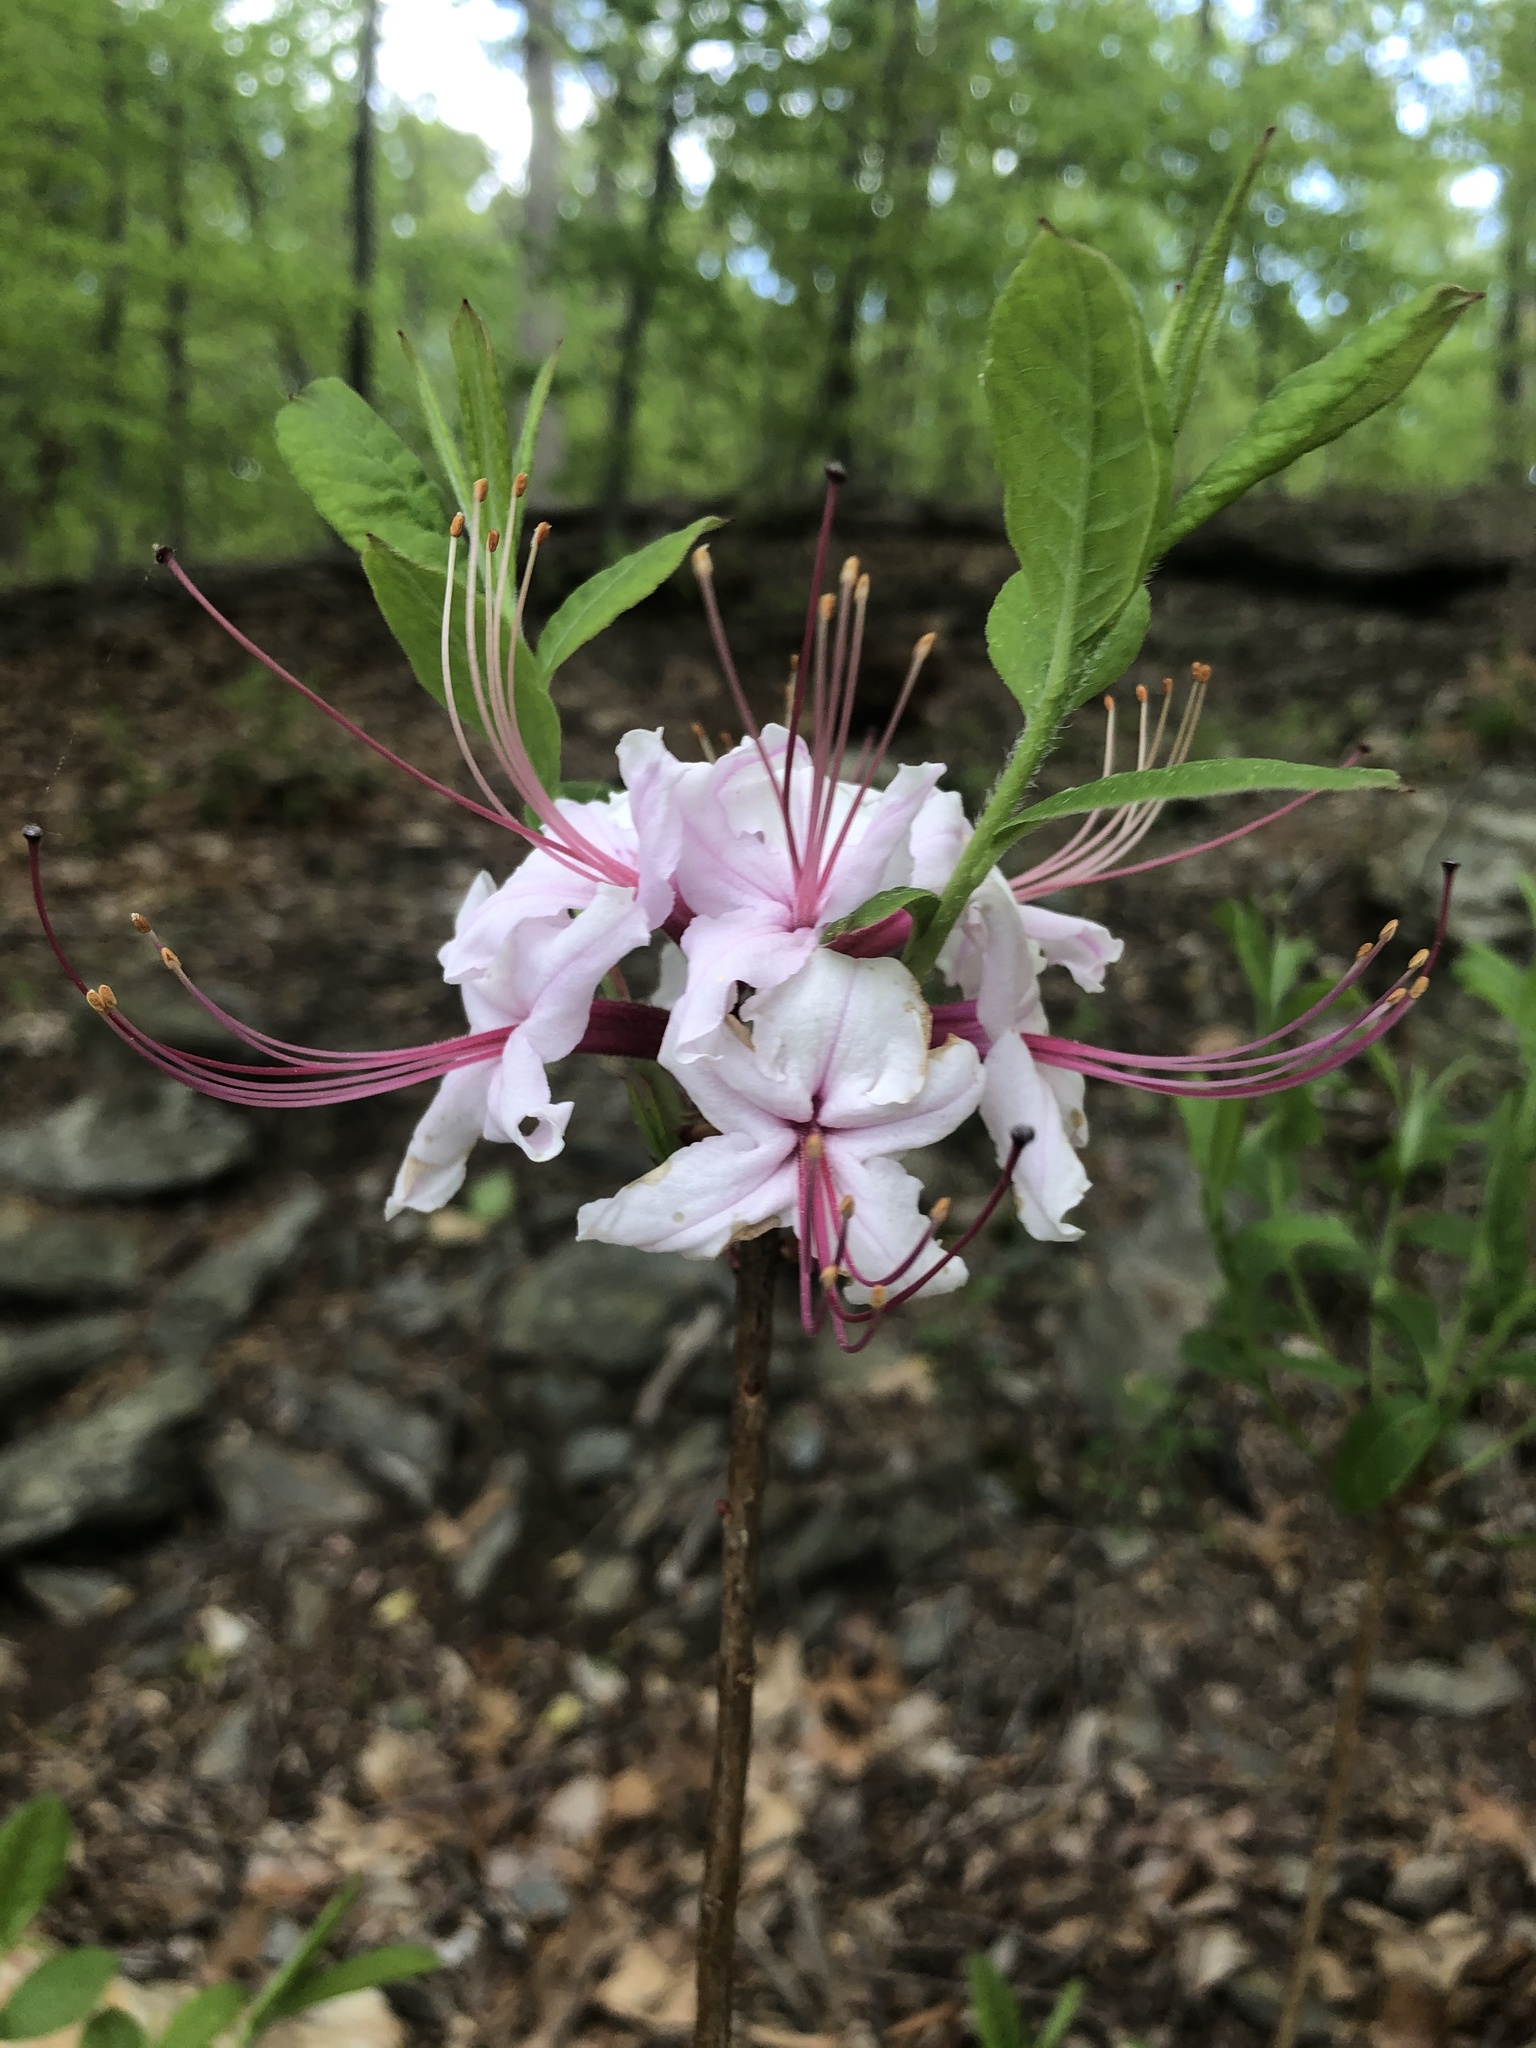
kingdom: Plantae
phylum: Tracheophyta
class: Magnoliopsida
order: Ericales
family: Ericaceae
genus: Rhododendron
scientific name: Rhododendron periclymenoides
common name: Election-pink
